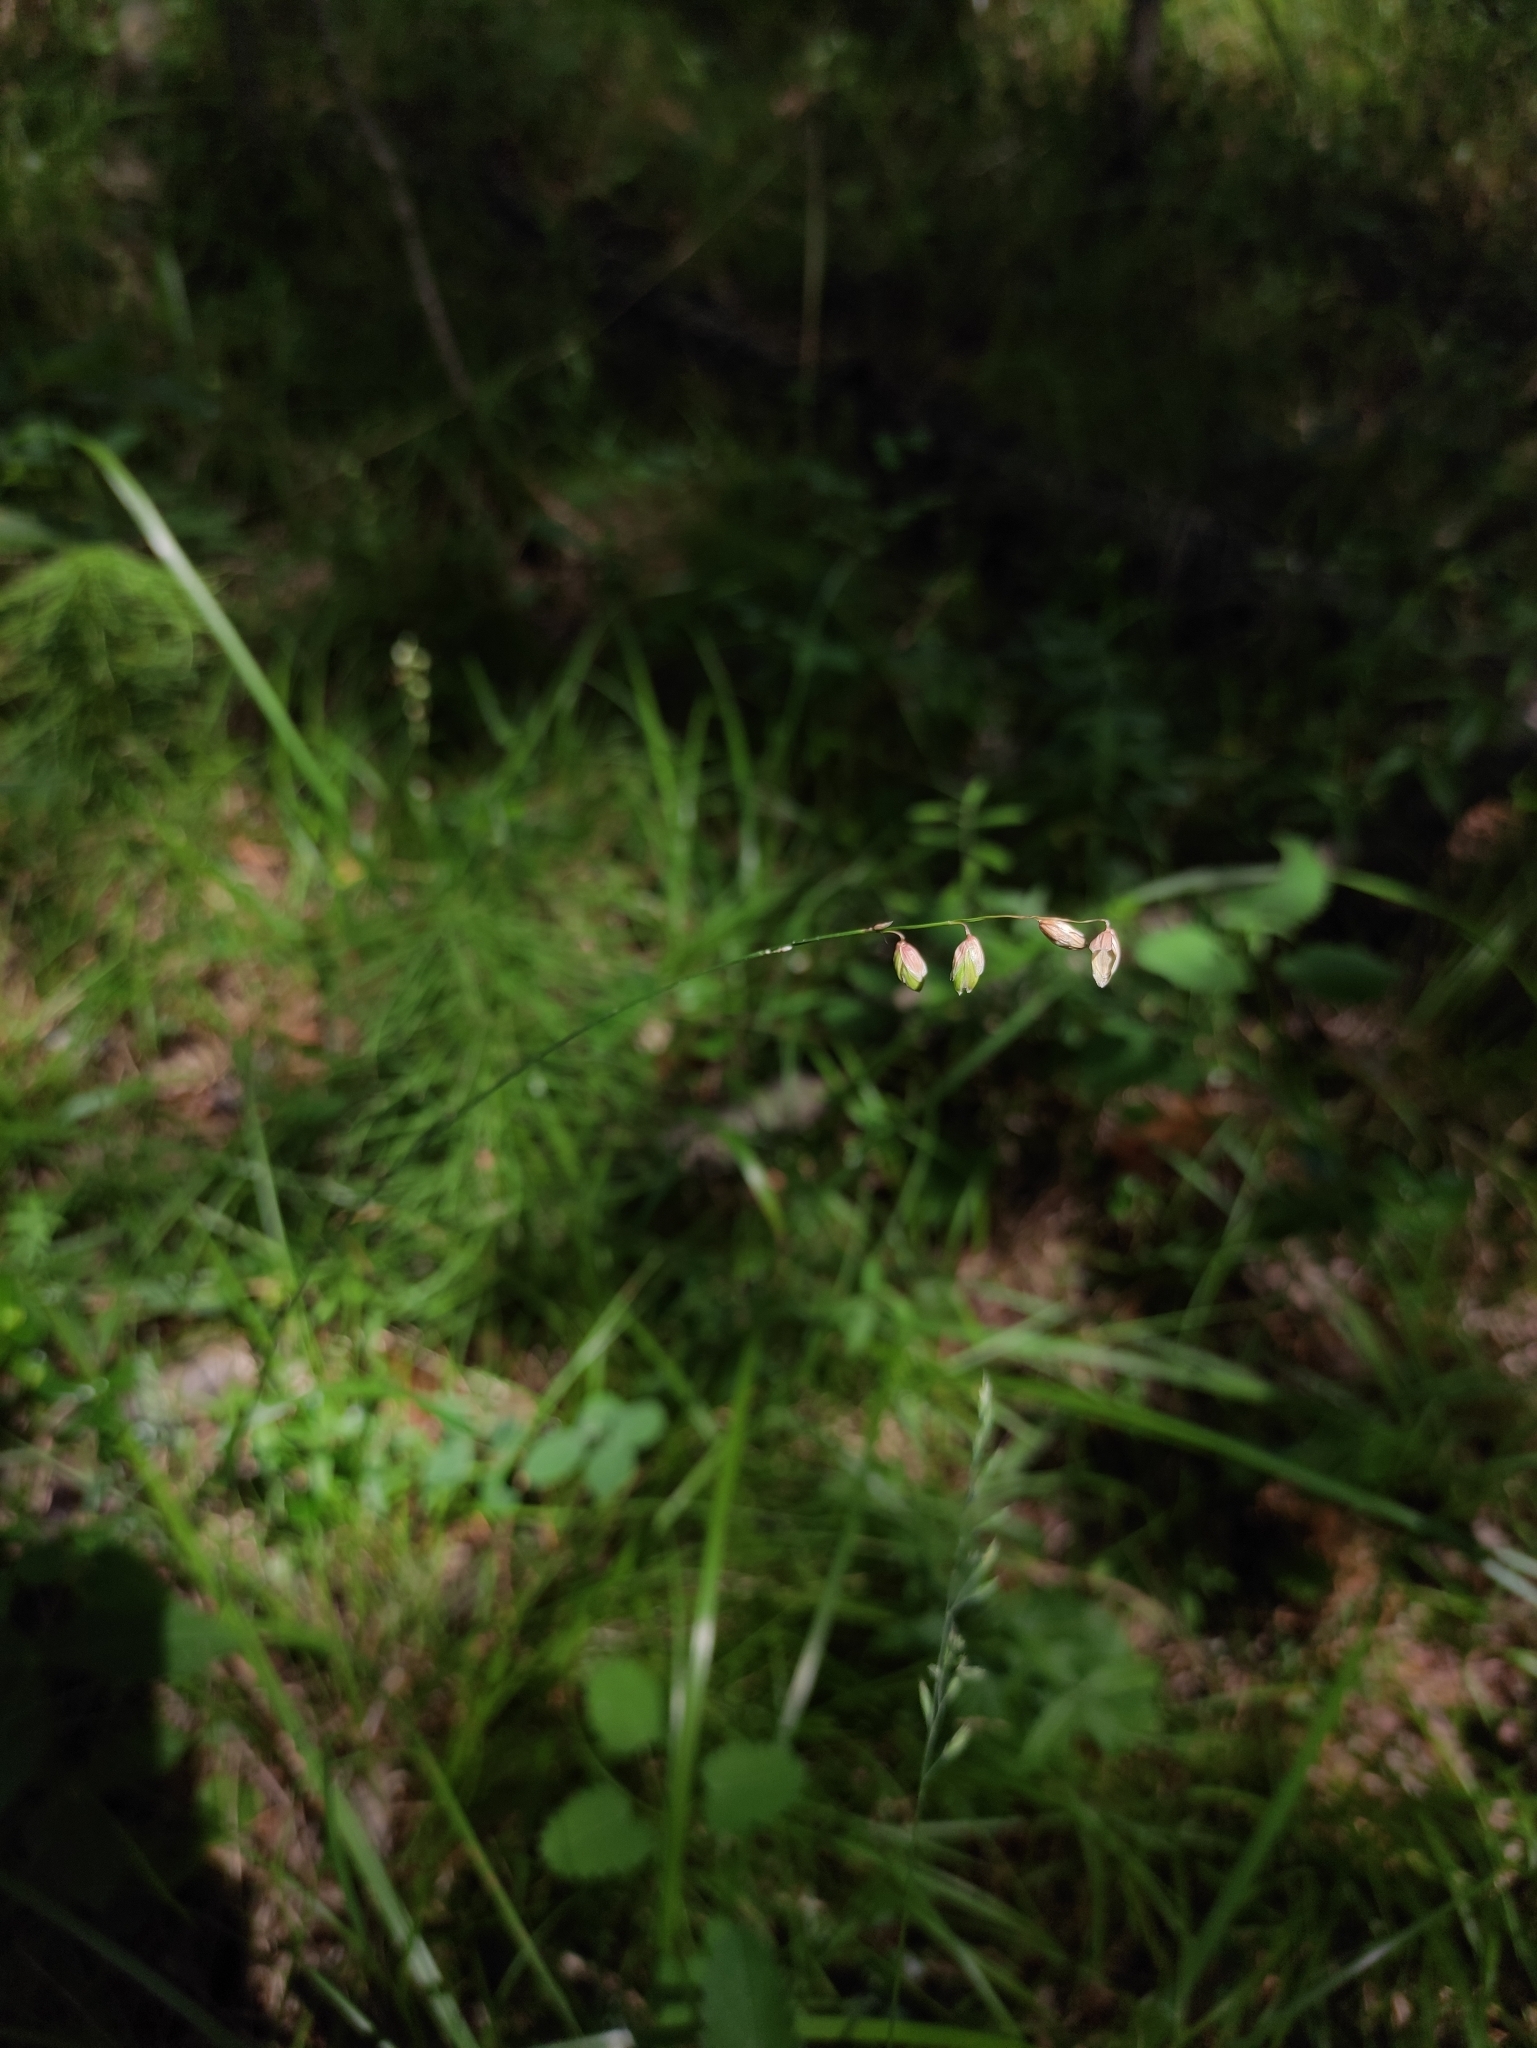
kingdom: Plantae
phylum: Tracheophyta
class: Liliopsida
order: Poales
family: Poaceae
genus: Melica
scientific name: Melica nutans
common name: Mountain melick
